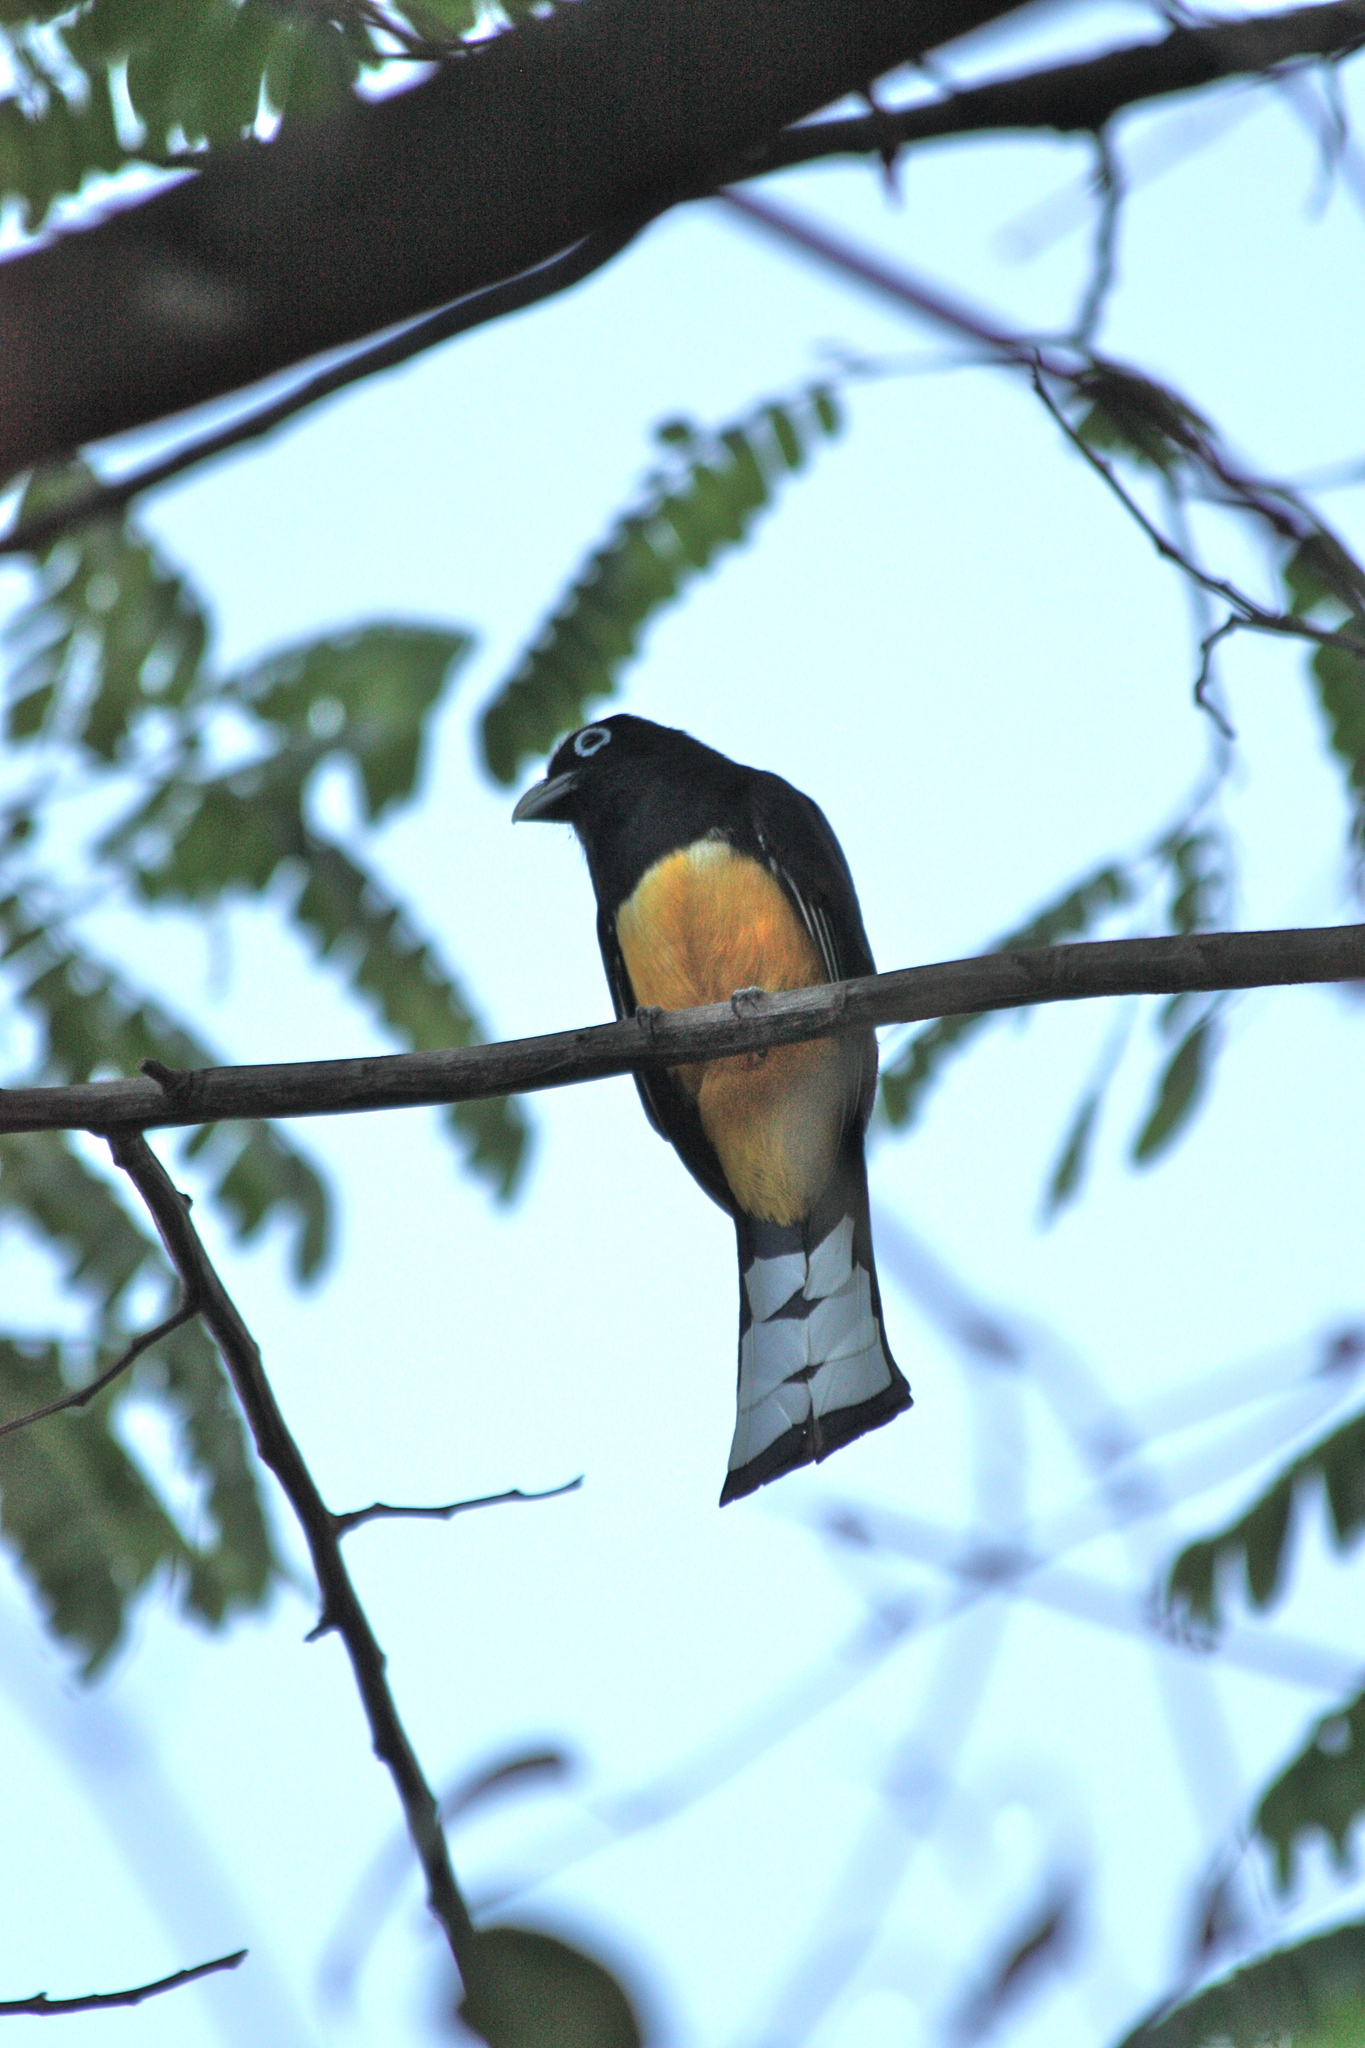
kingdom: Animalia
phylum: Chordata
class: Aves
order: Trogoniformes
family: Trogonidae
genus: Trogon
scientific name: Trogon melanocephalus
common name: Black-headed trogon
